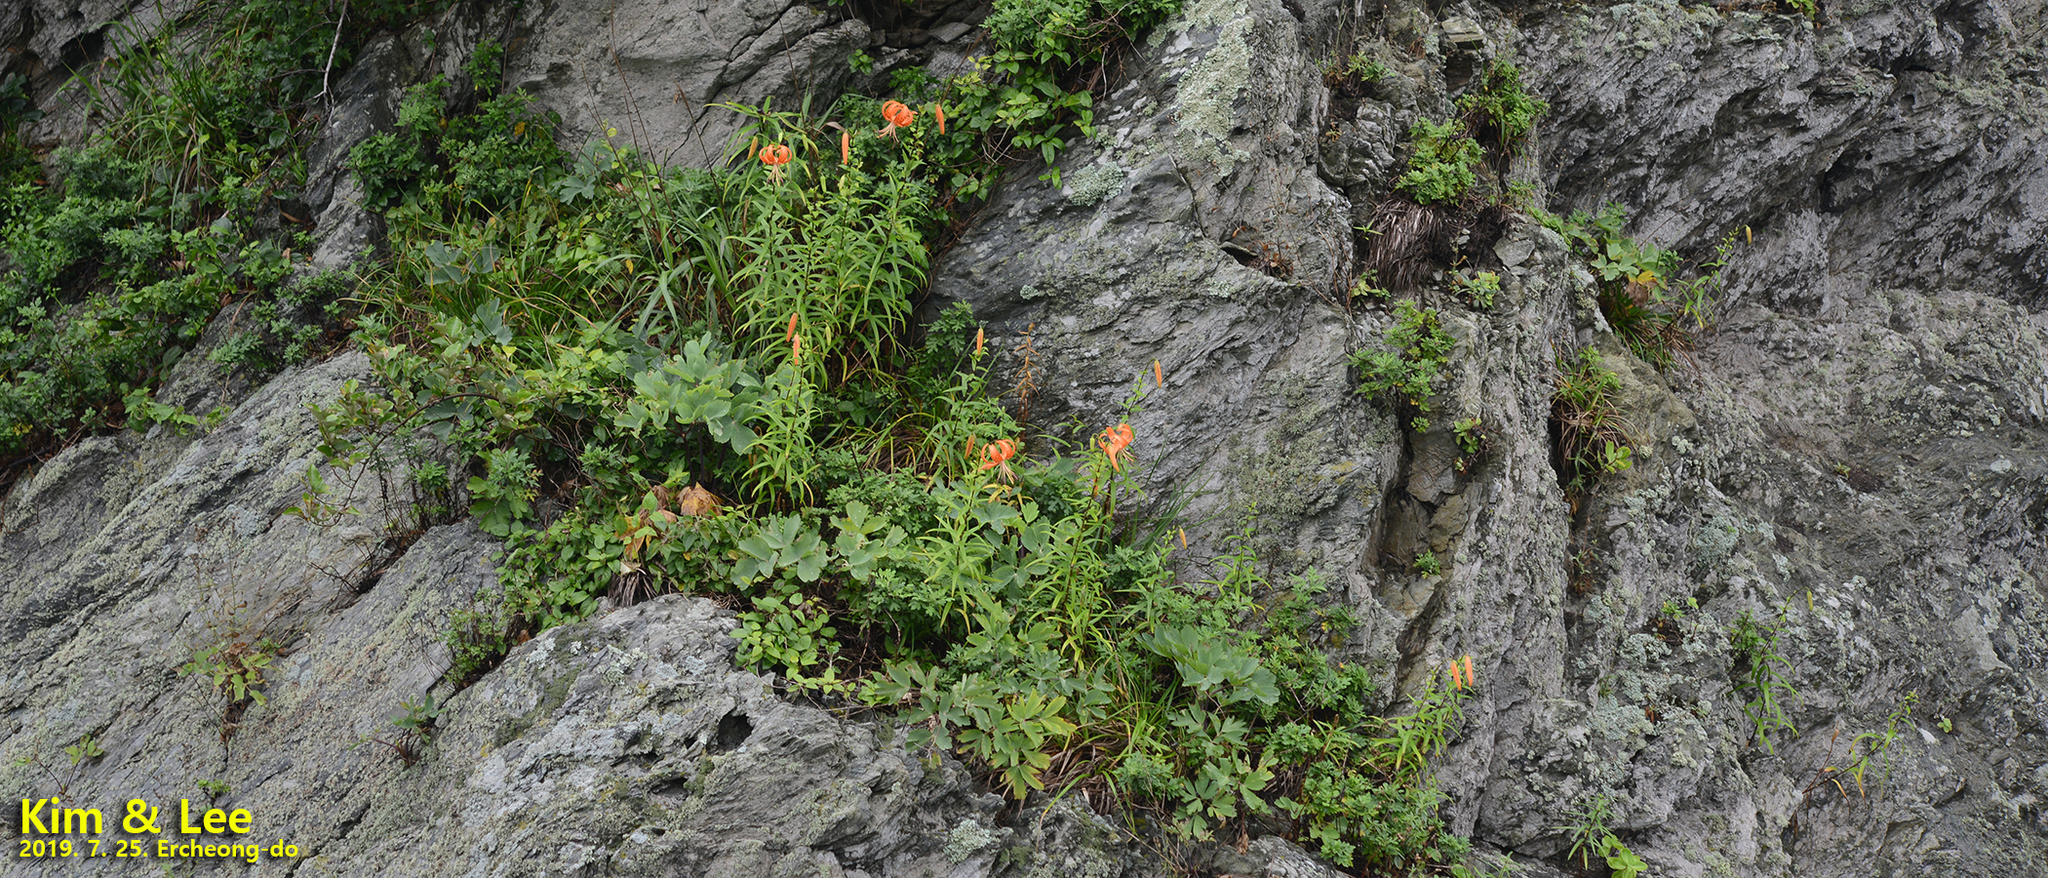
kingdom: Plantae
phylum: Tracheophyta
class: Liliopsida
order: Liliales
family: Liliaceae
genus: Lilium
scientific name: Lilium lancifolium
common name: Tiger lily
